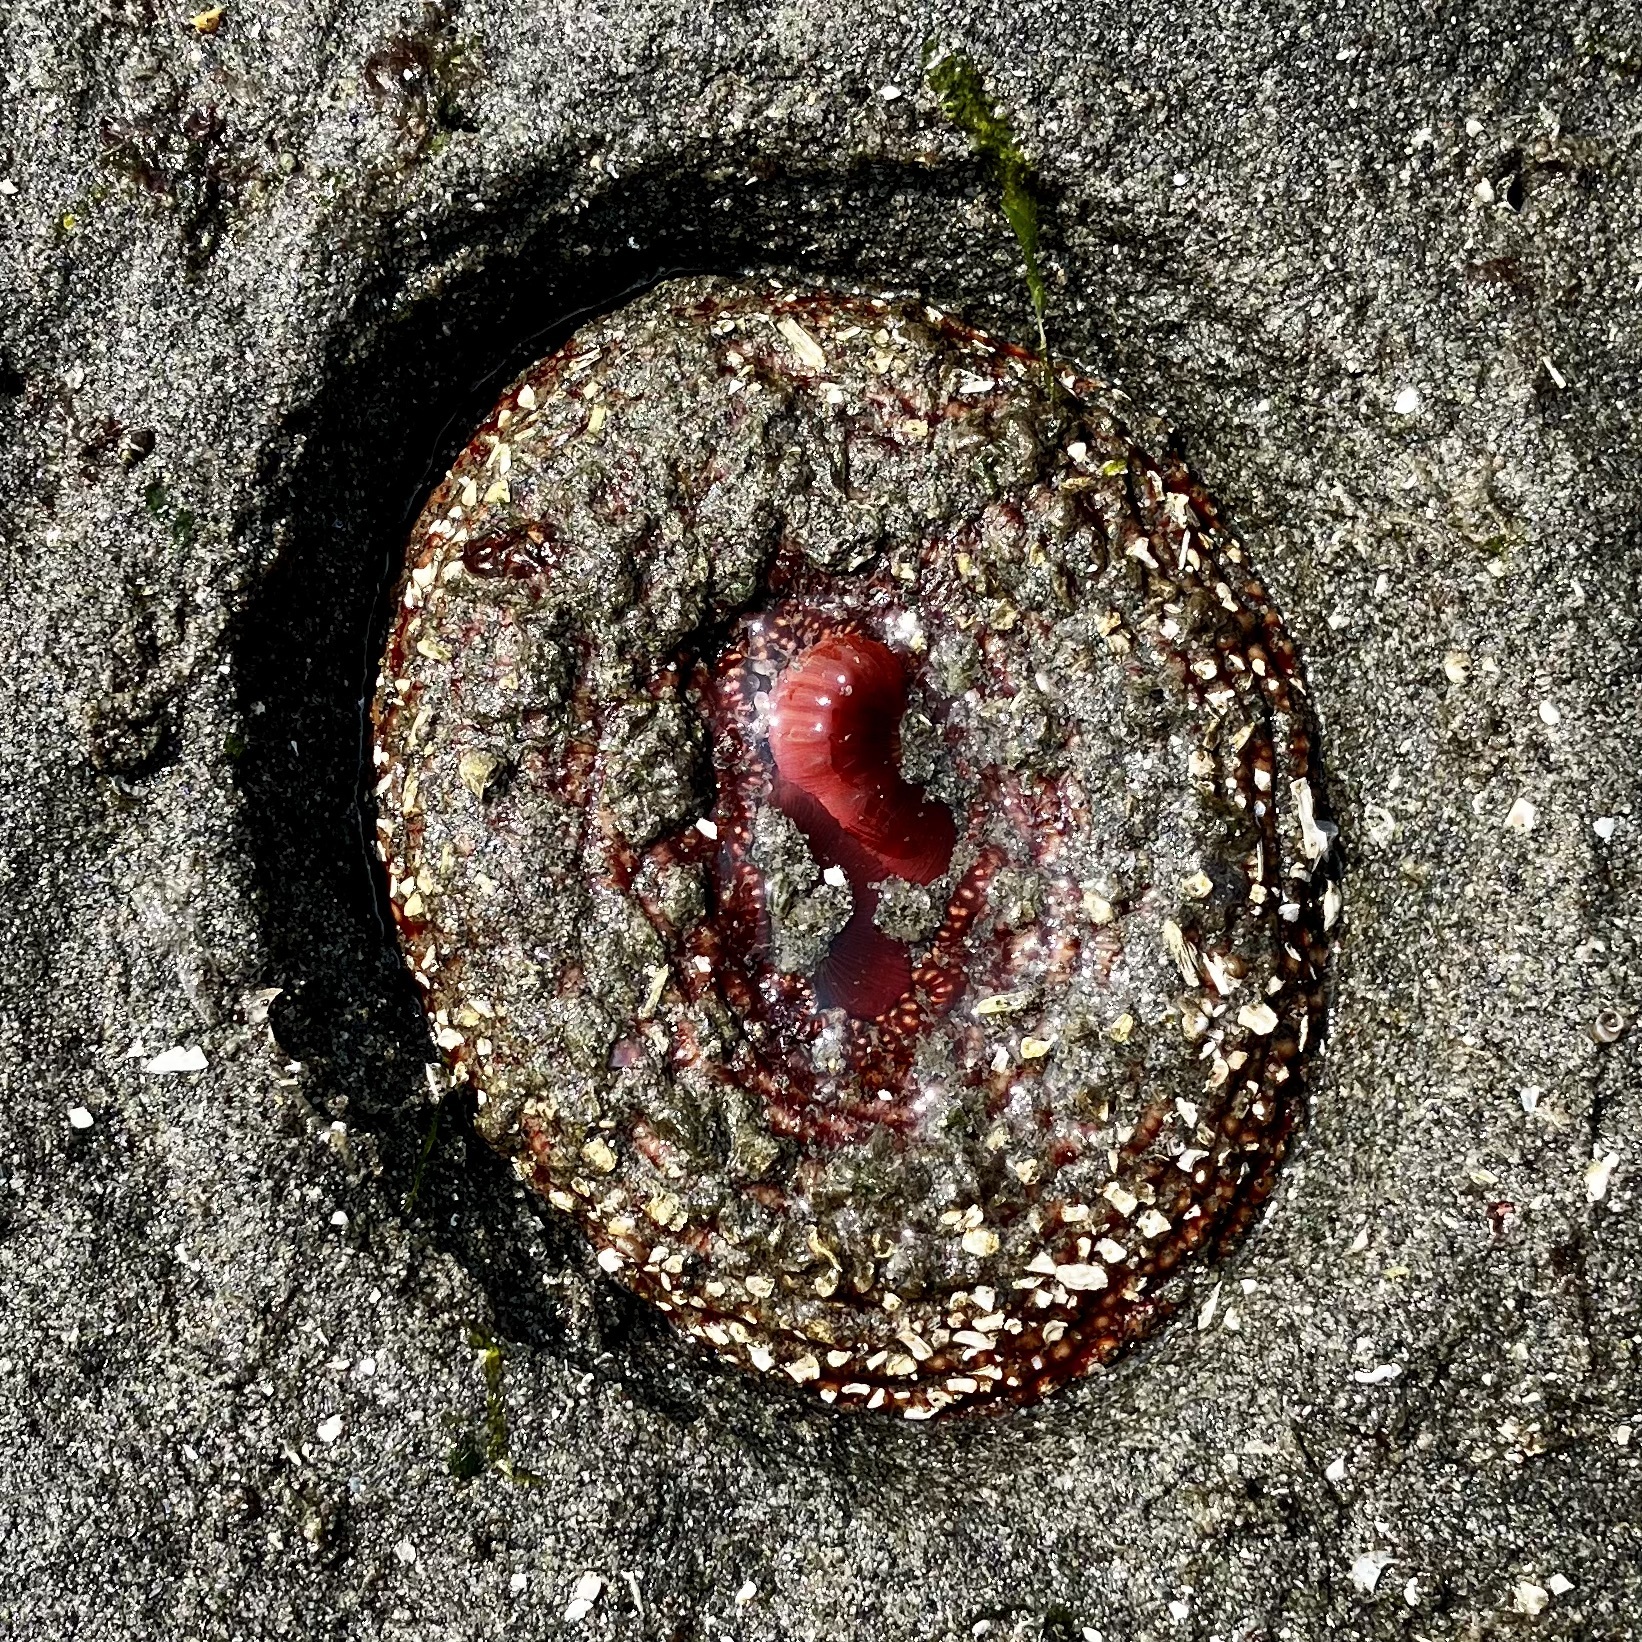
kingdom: Animalia
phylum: Cnidaria
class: Anthozoa
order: Actiniaria
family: Actiniidae
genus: Urticina
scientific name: Urticina columbiana
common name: Crusty red anemone
